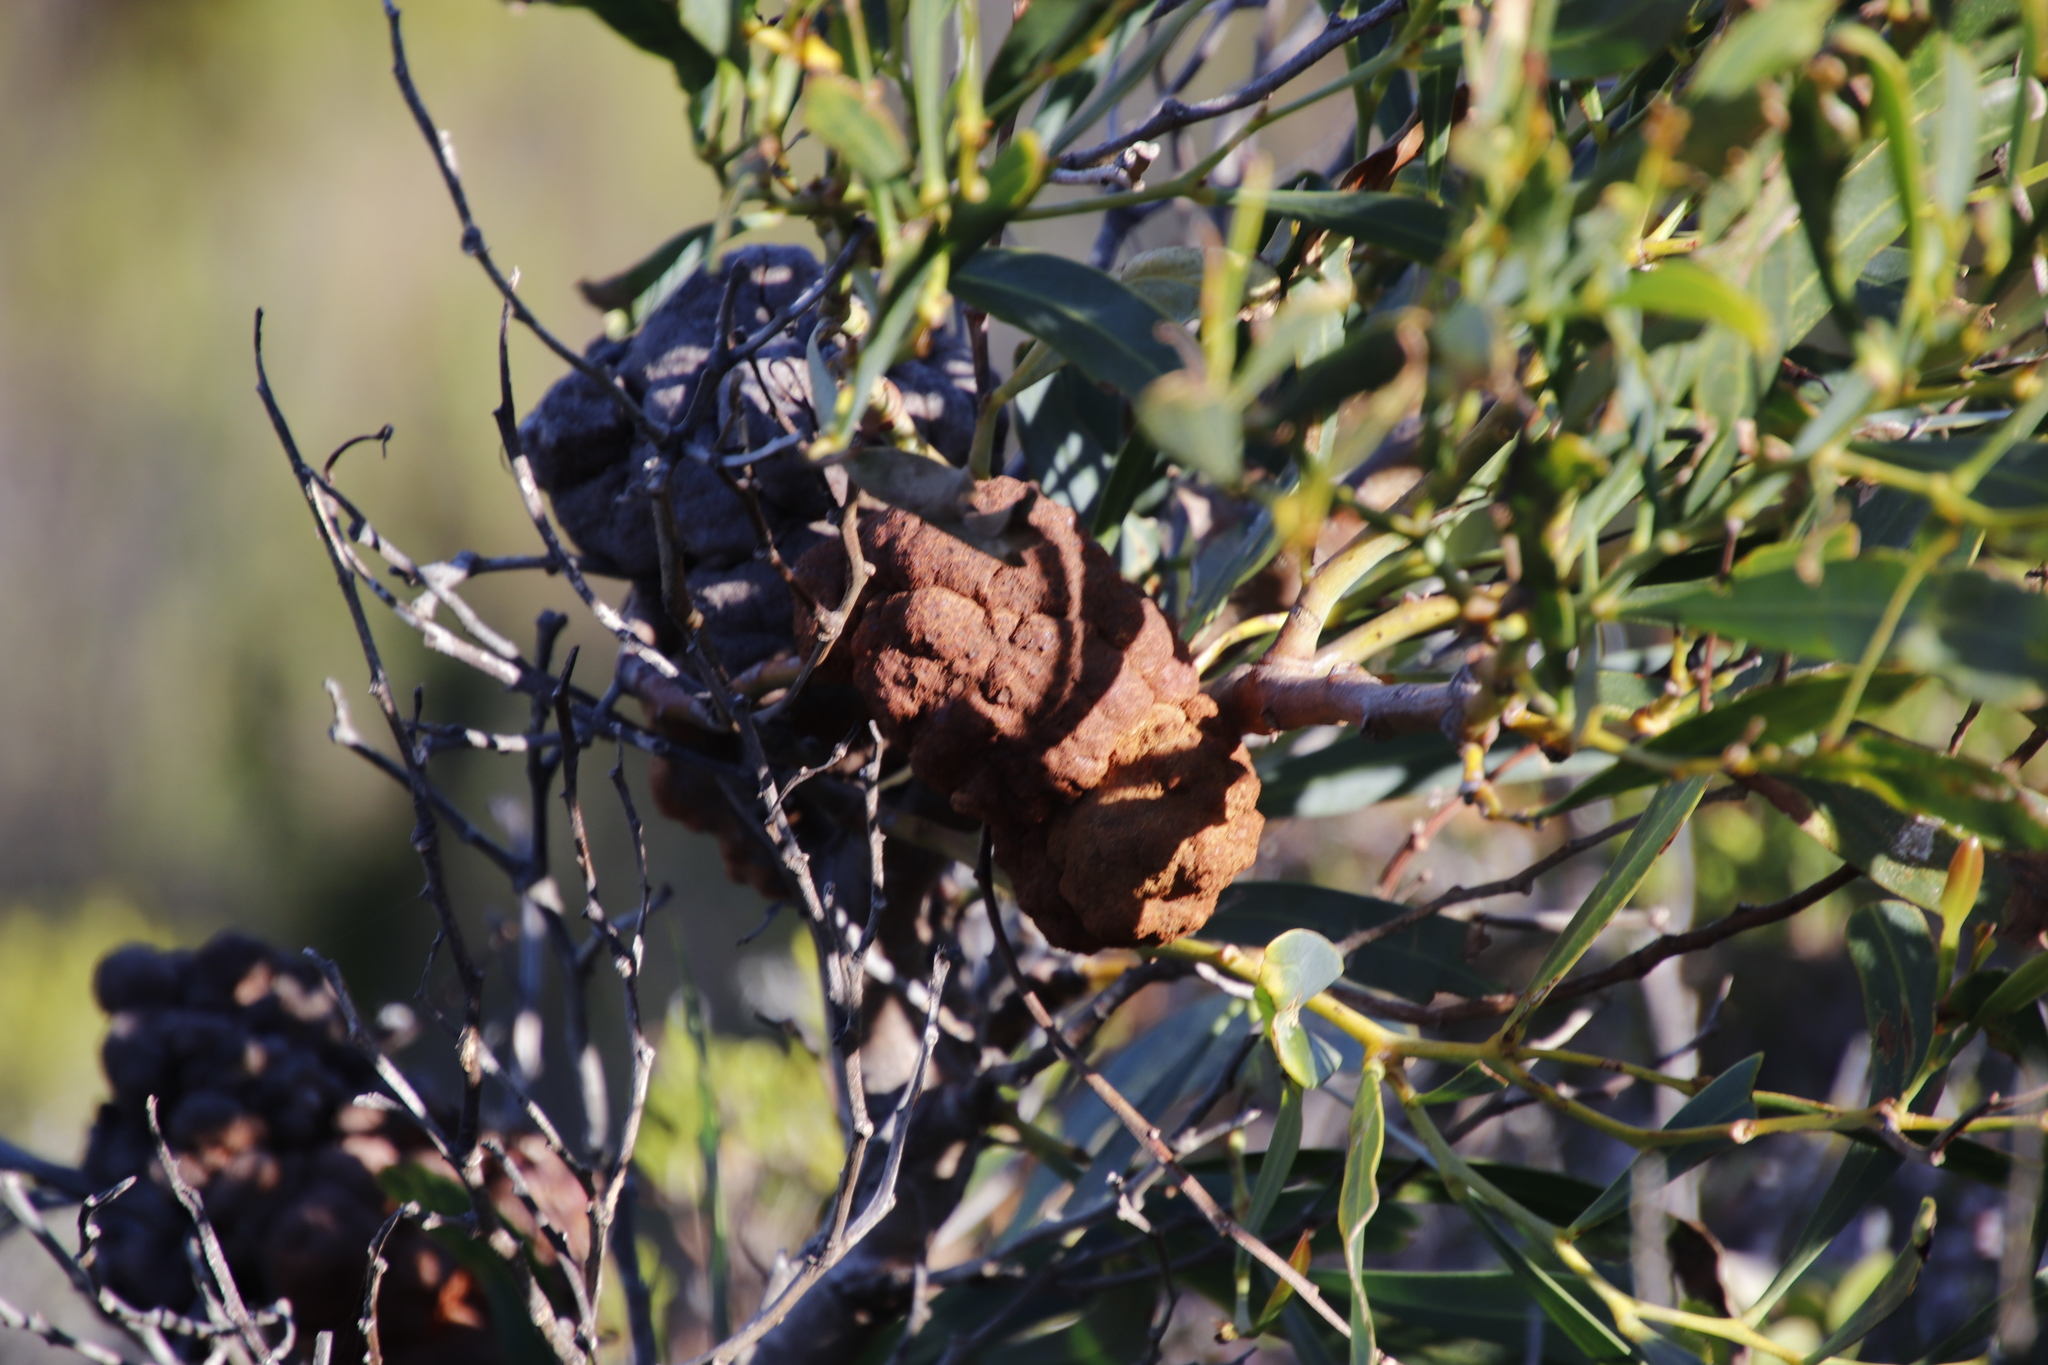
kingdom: Fungi
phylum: Basidiomycota
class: Pucciniomycetes
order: Pucciniales
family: Uromycladiaceae
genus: Uromycladium
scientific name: Uromycladium morrisii
